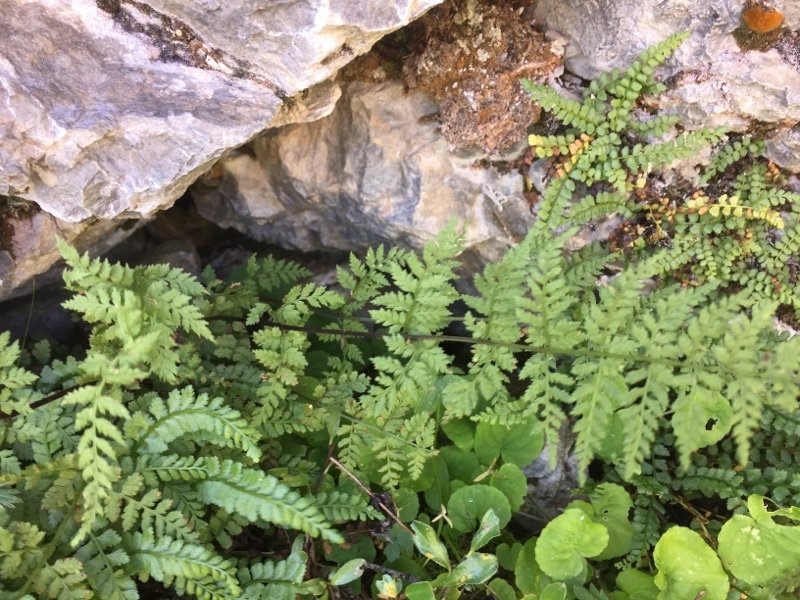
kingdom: Plantae
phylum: Tracheophyta
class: Polypodiopsida
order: Polypodiales
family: Cystopteridaceae
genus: Cystopteris
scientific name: Cystopteris fragilis
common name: Brittle bladder fern
